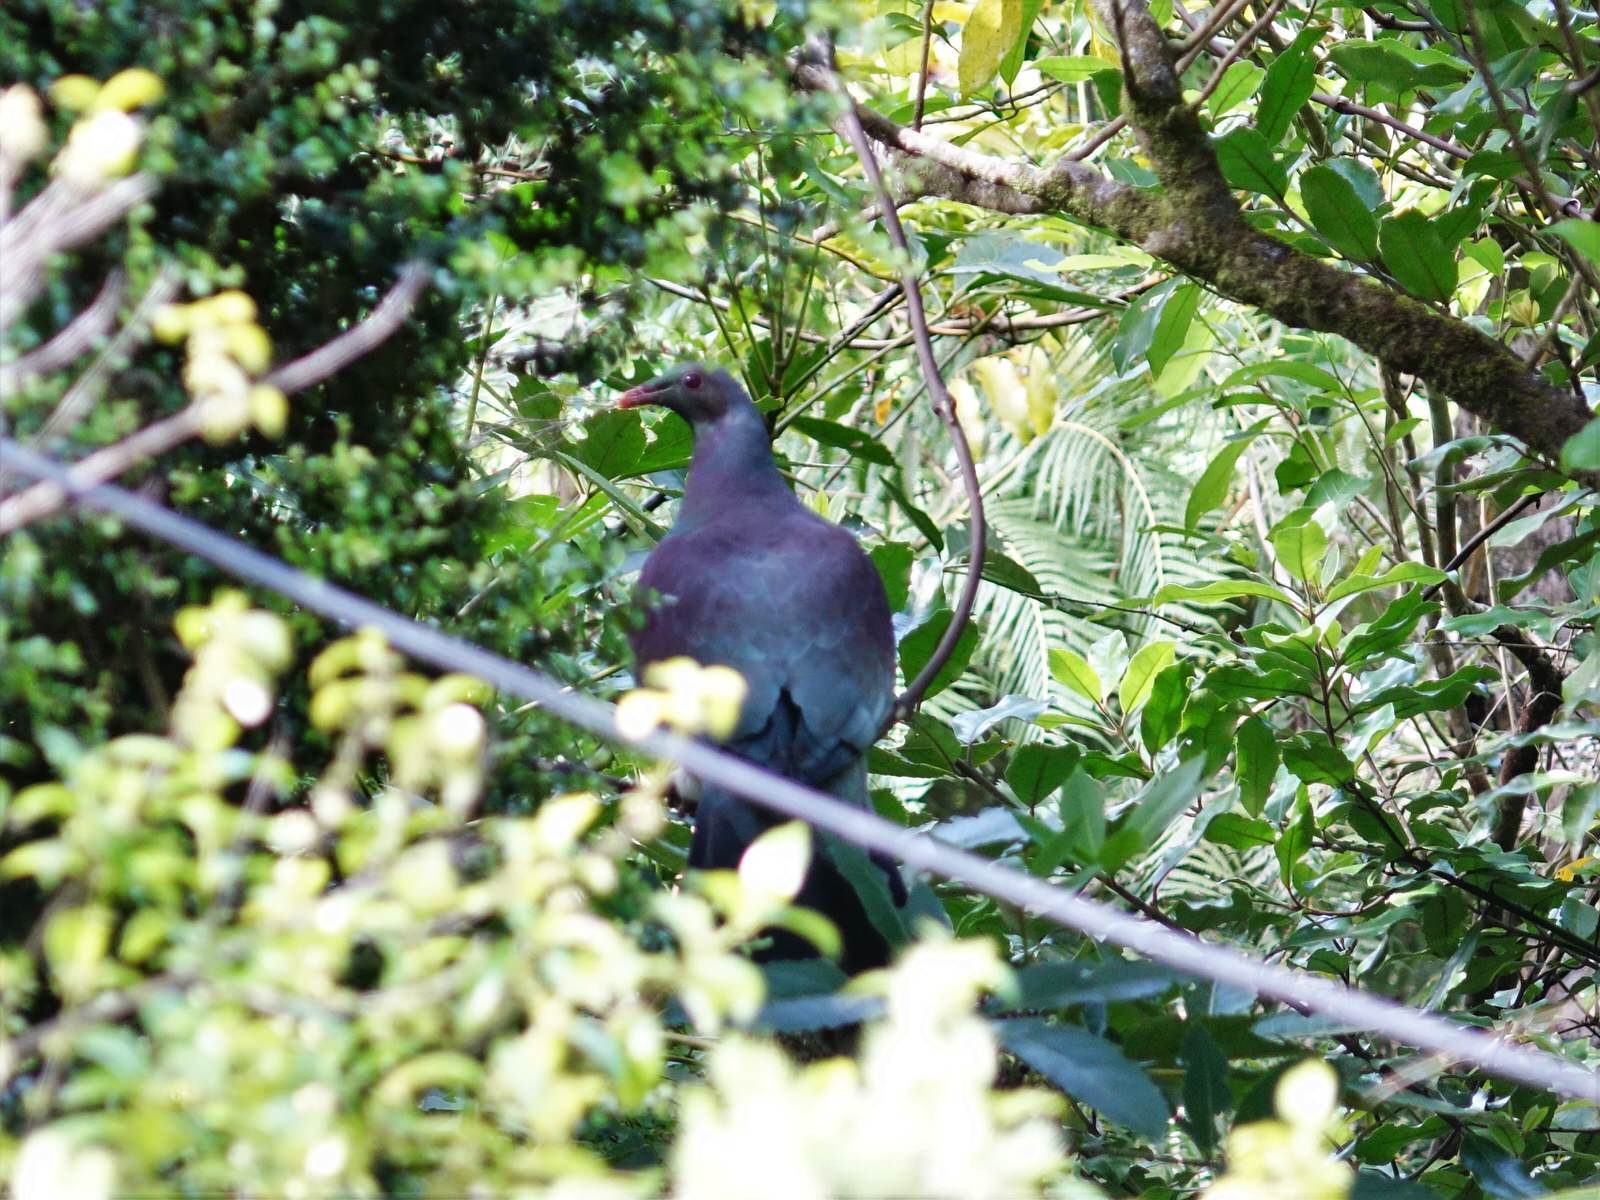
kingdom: Animalia
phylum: Chordata
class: Aves
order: Columbiformes
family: Columbidae
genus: Hemiphaga
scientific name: Hemiphaga novaeseelandiae
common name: New zealand pigeon
